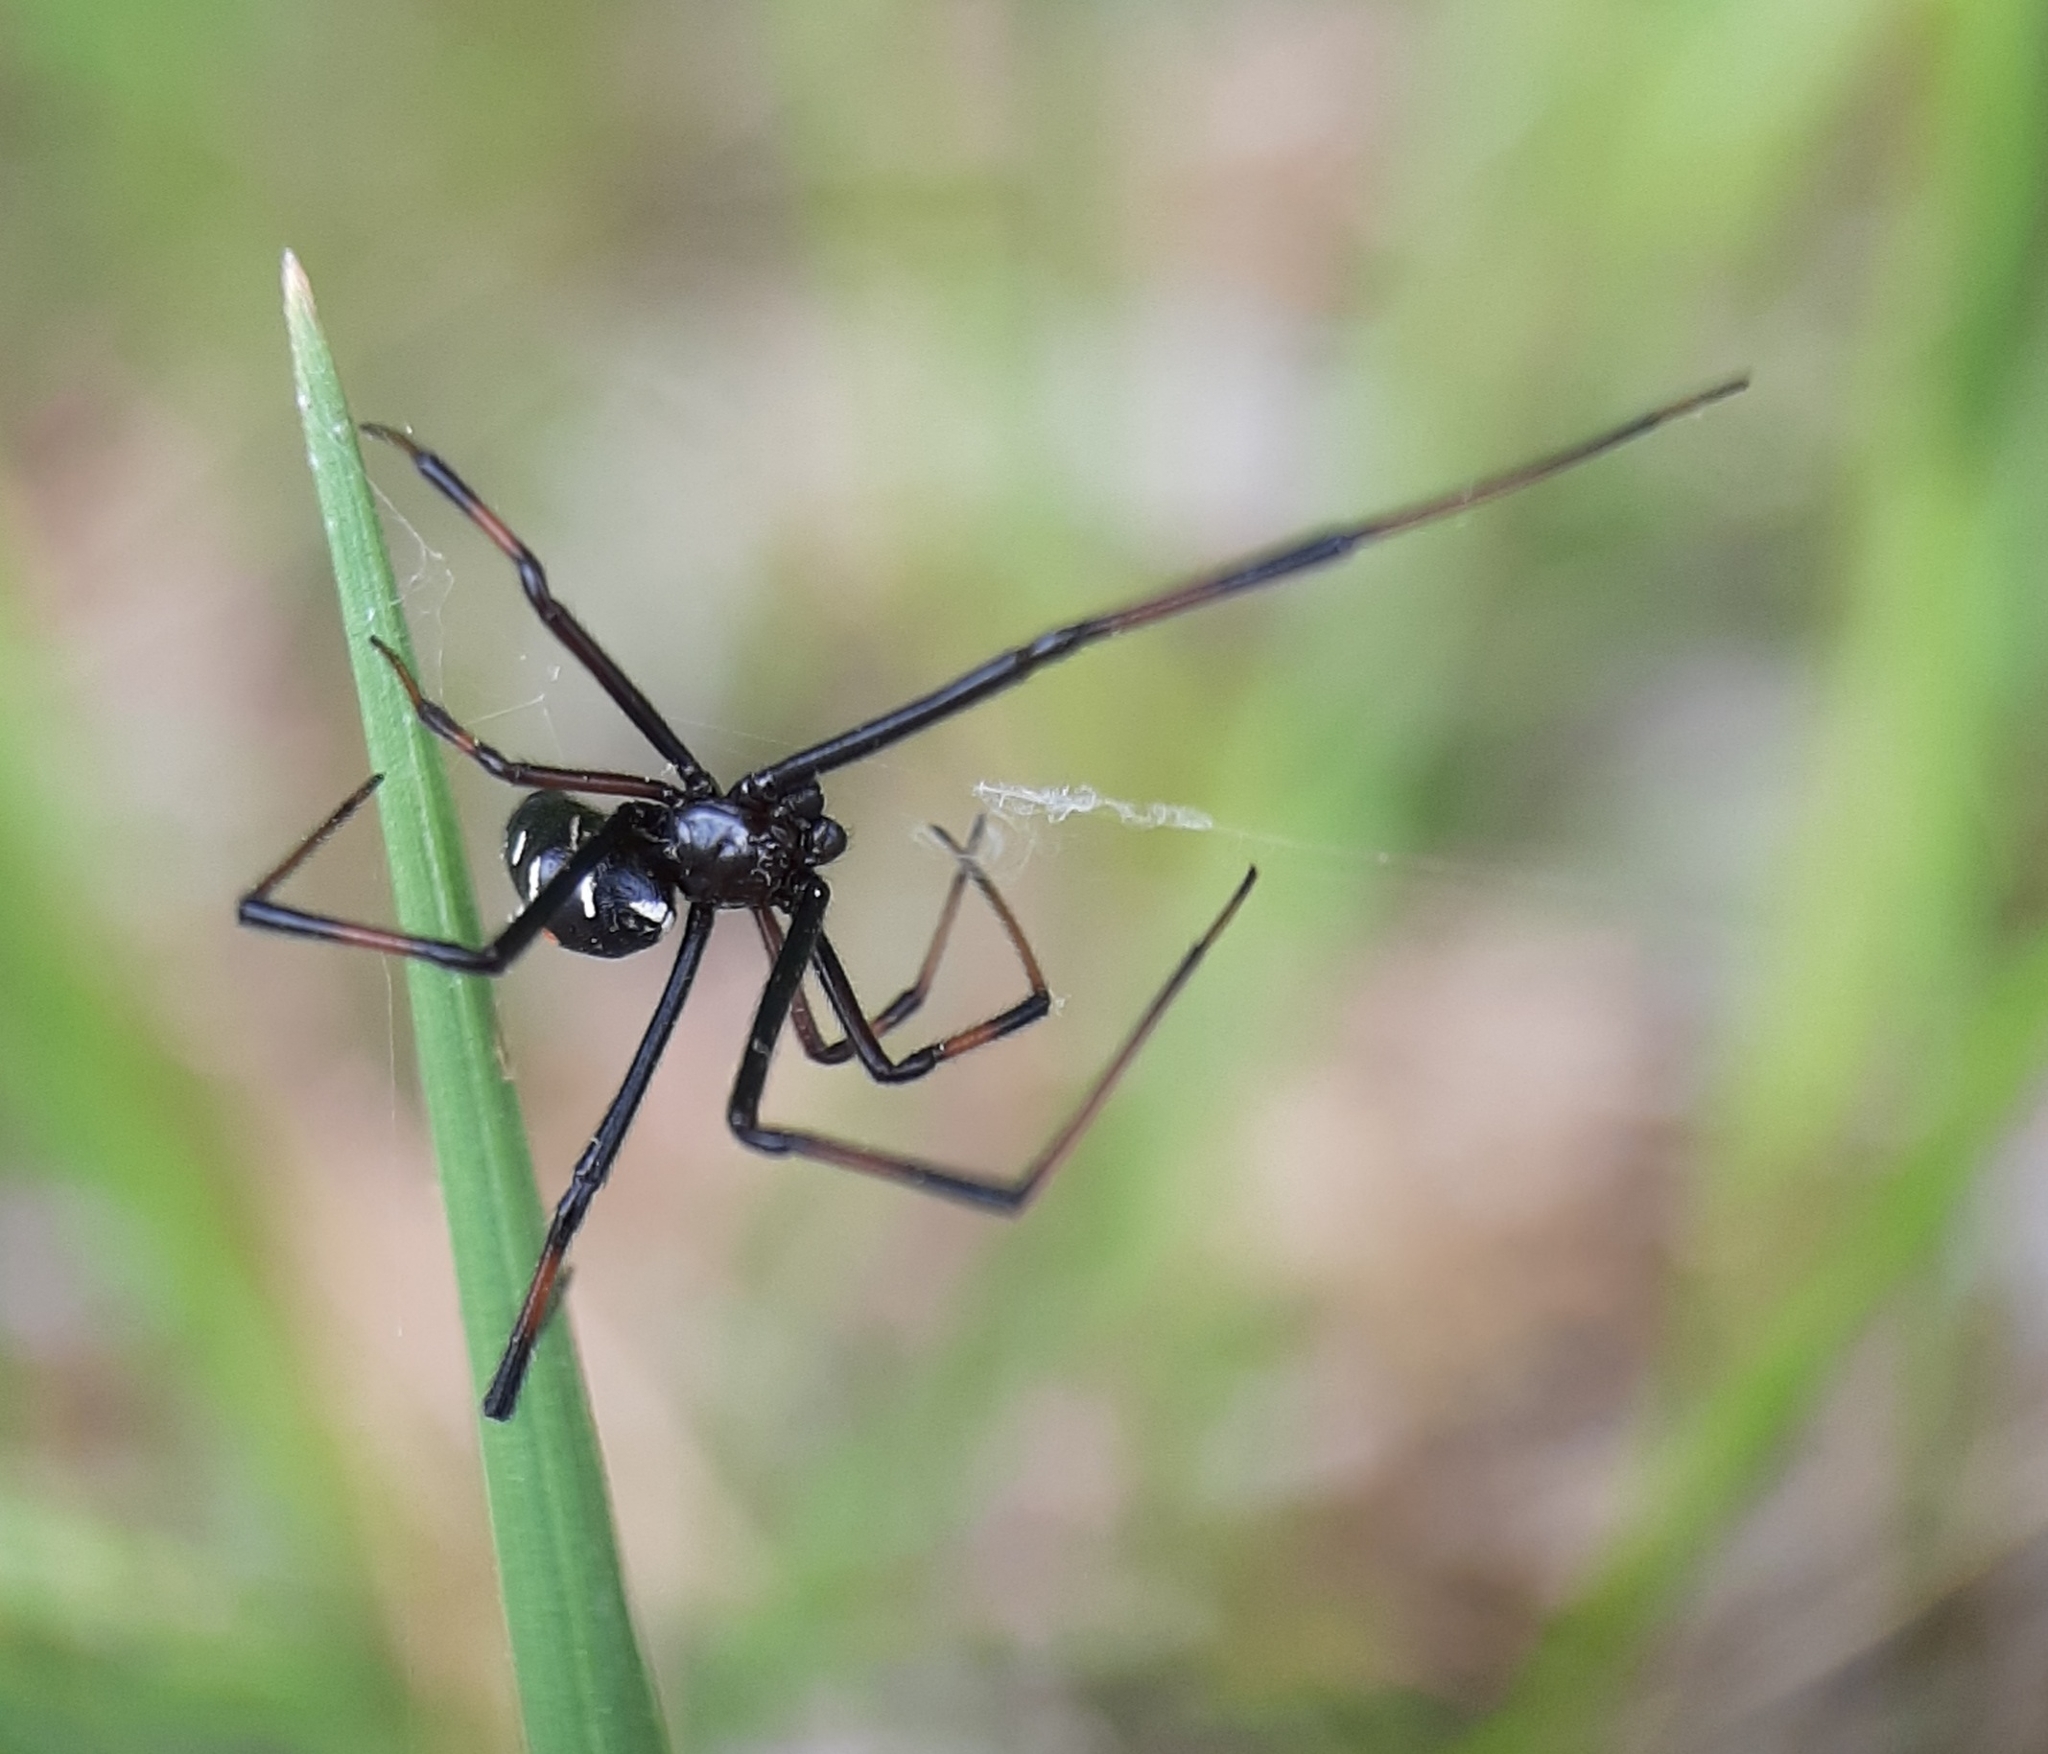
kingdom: Animalia
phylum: Arthropoda
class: Arachnida
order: Araneae
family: Theridiidae
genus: Latrodectus
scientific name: Latrodectus variolus
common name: Northern black widow
